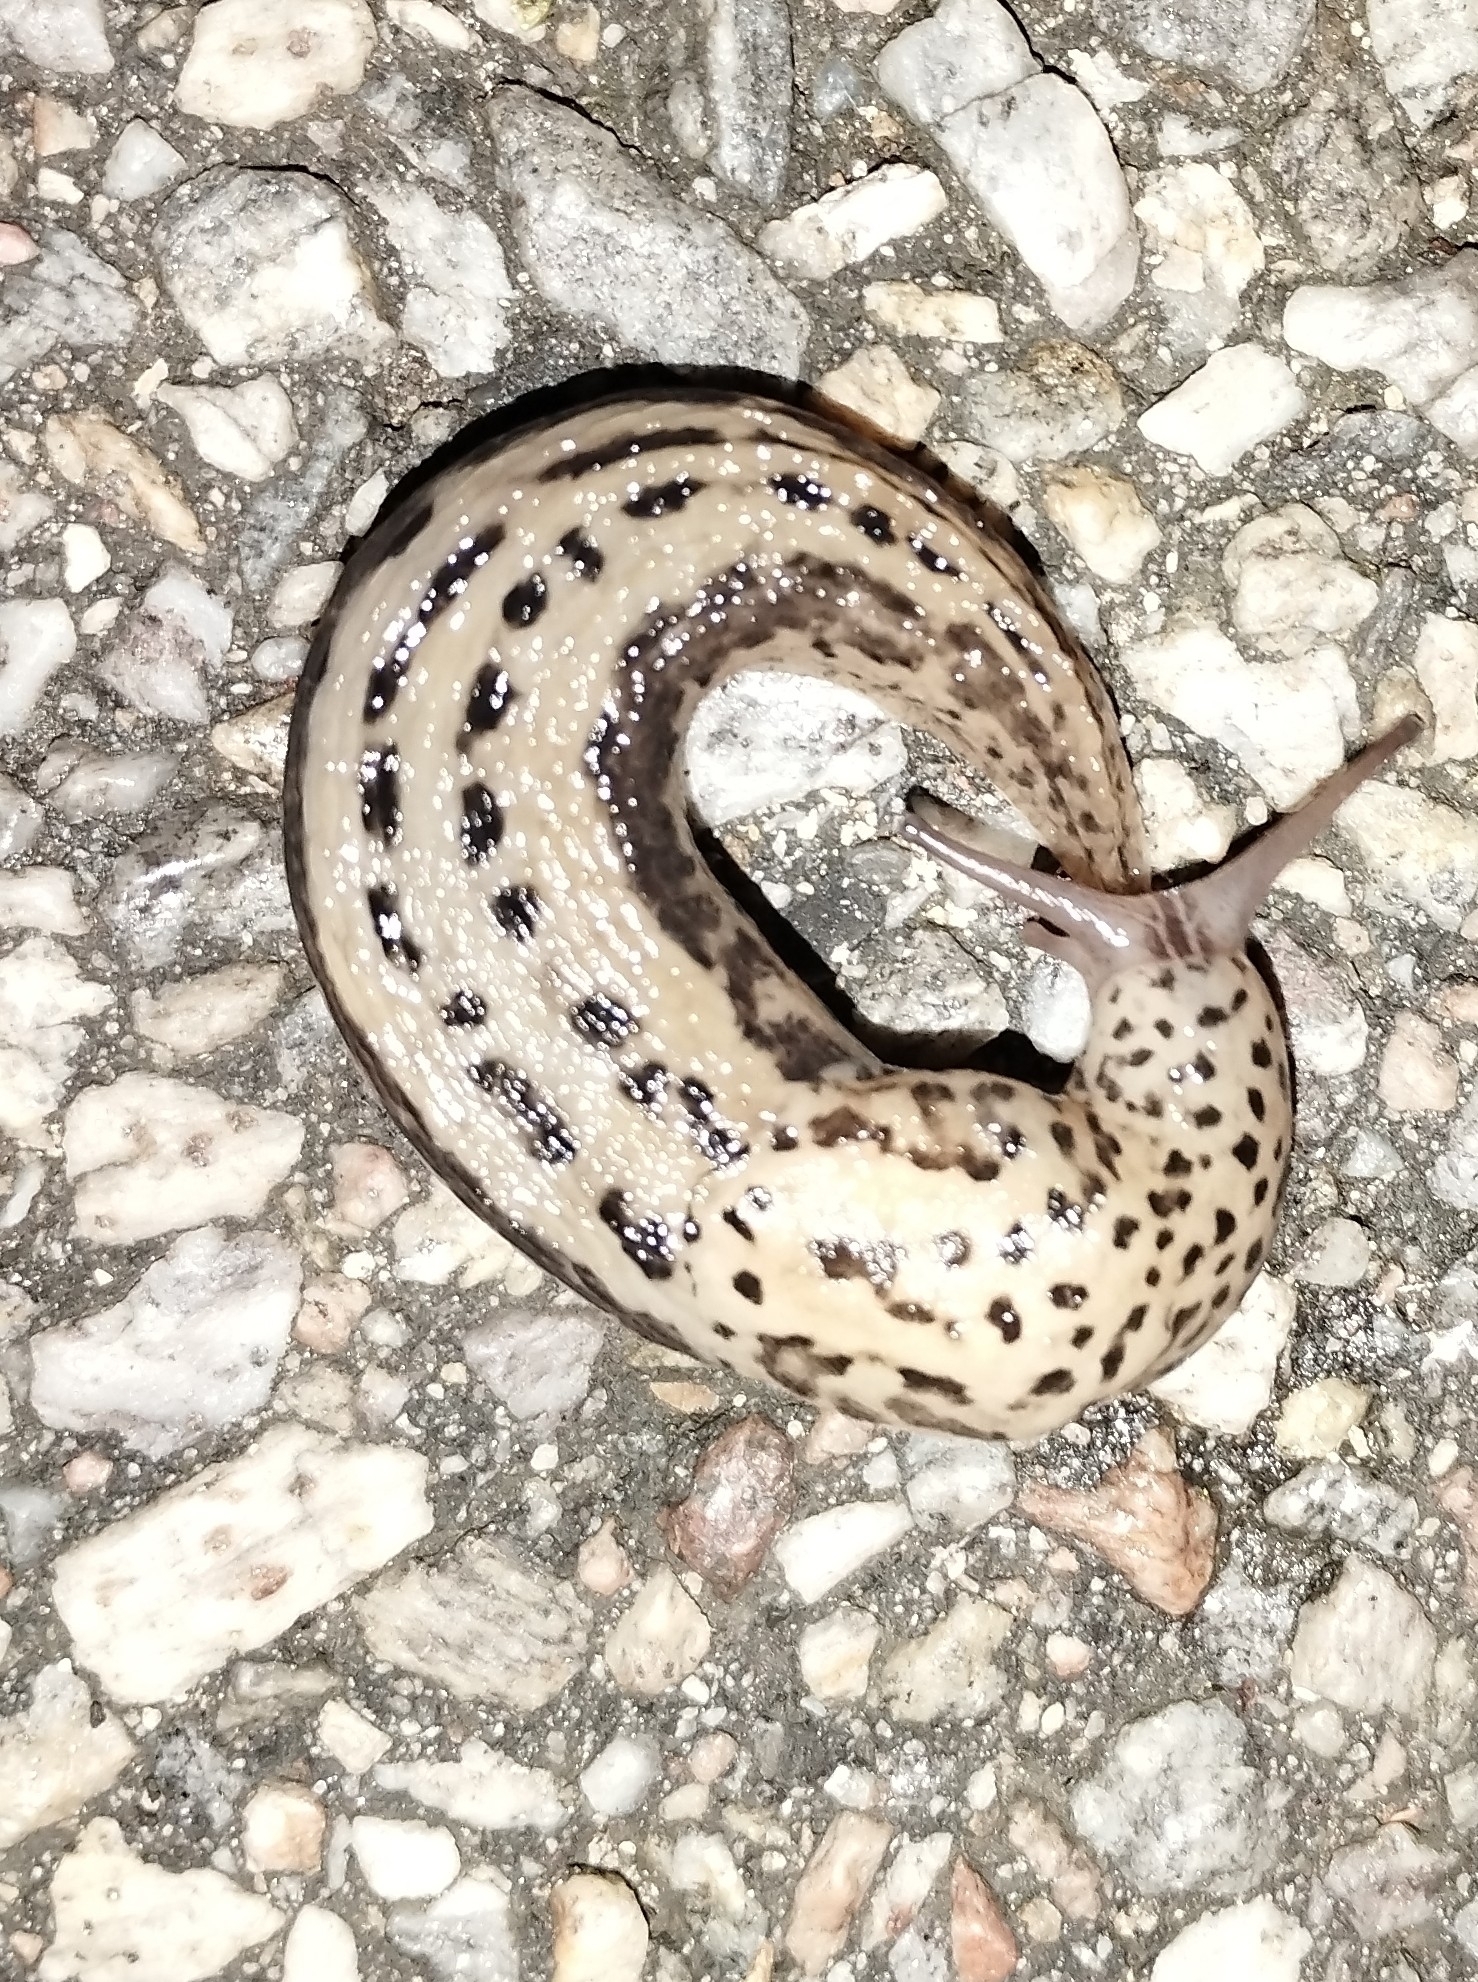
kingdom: Animalia
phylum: Mollusca
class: Gastropoda
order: Stylommatophora
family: Limacidae
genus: Limax
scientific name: Limax maximus
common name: Great grey slug
